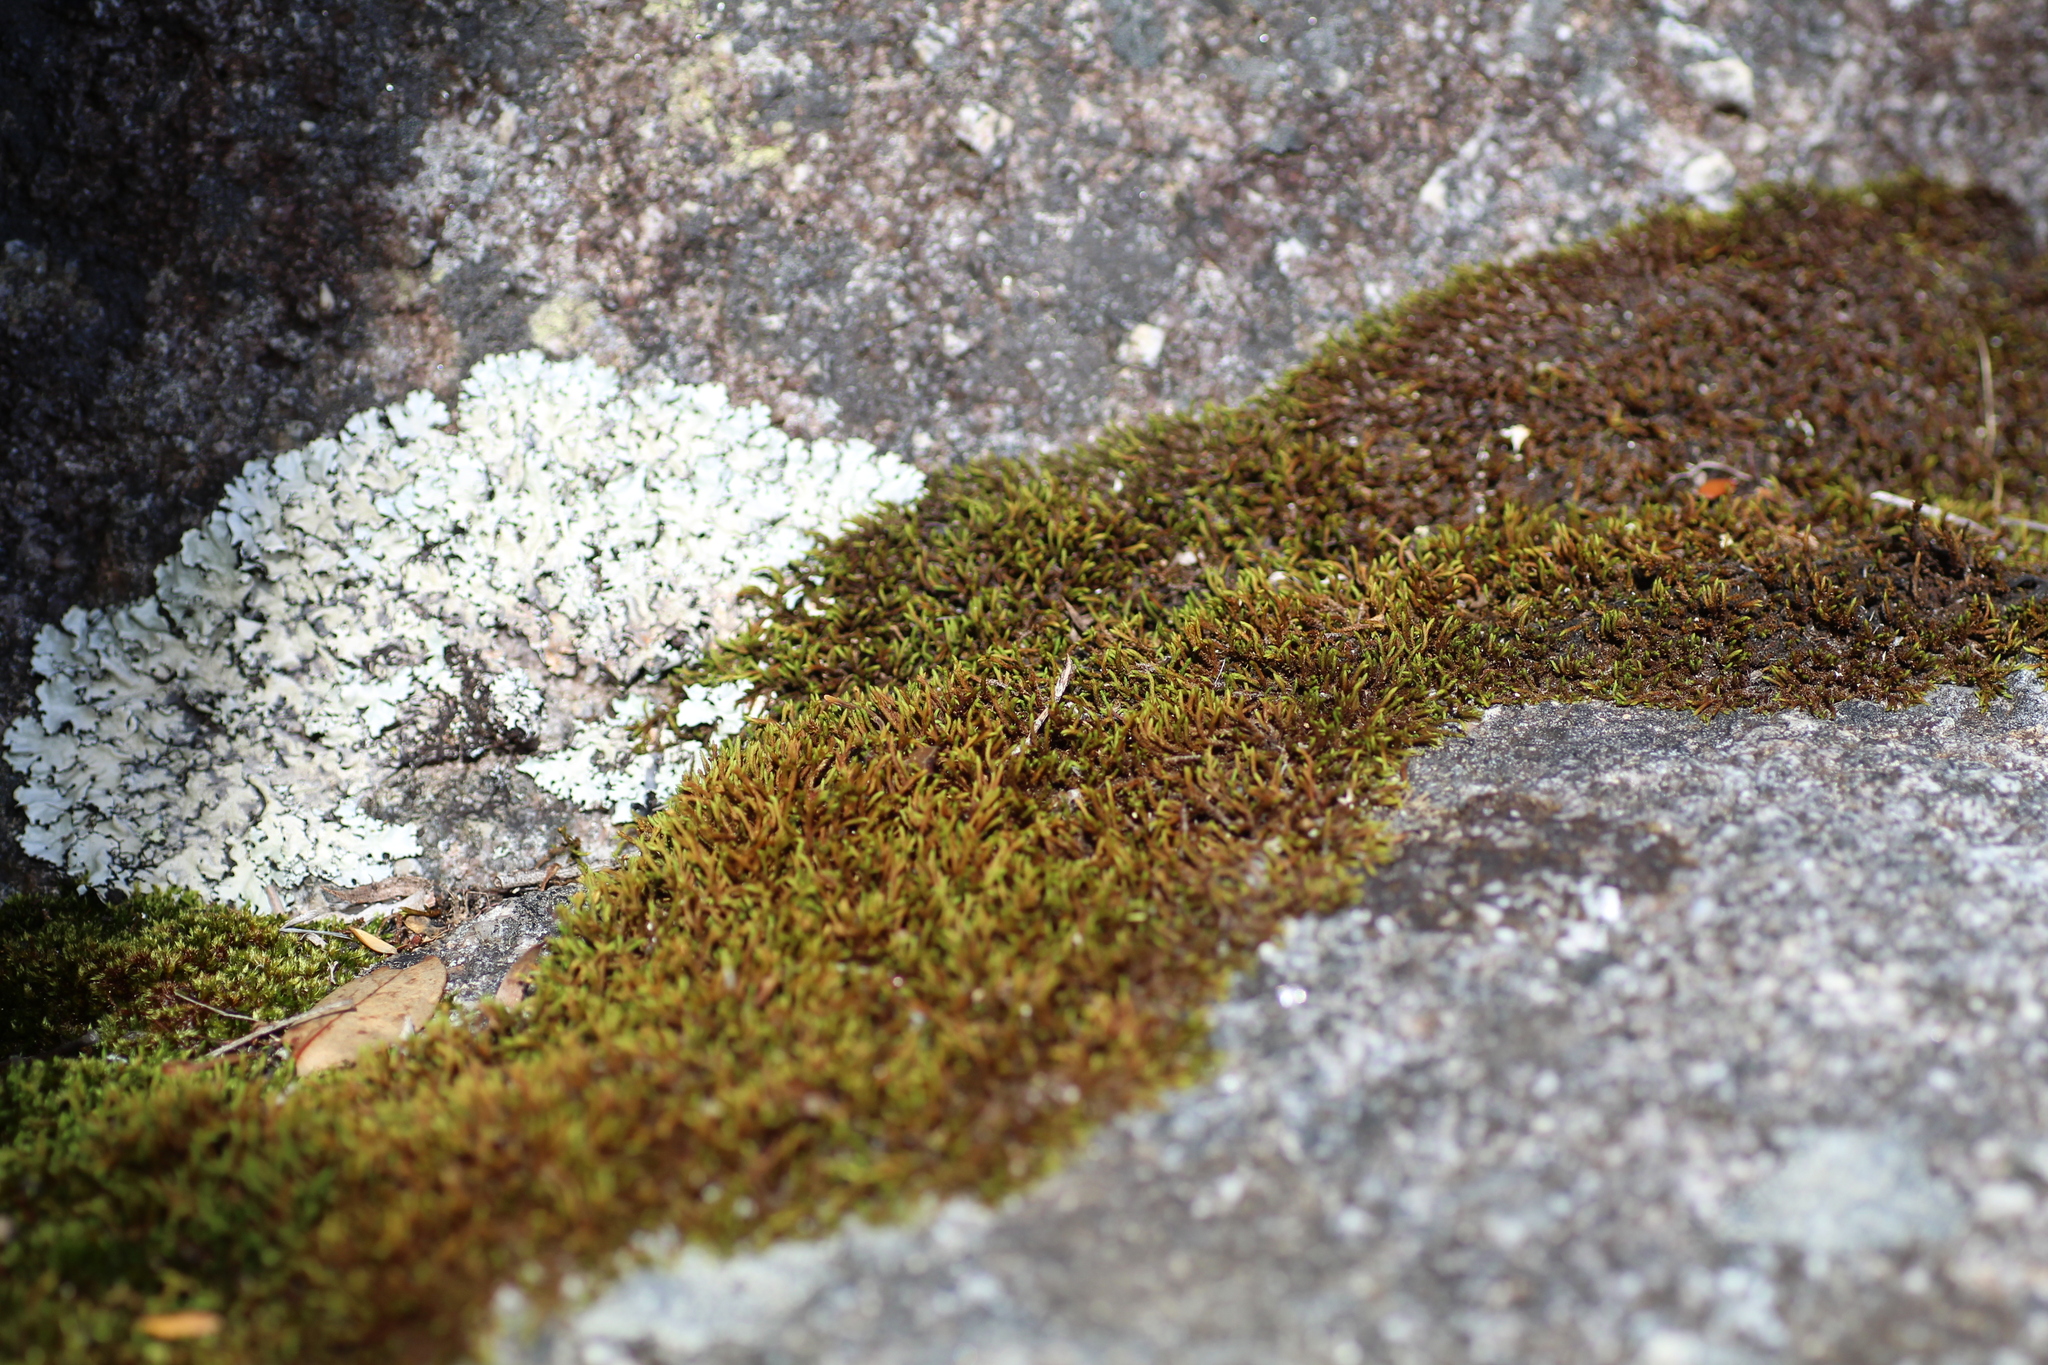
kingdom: Plantae
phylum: Bryophyta
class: Bryopsida
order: Hedwigiales
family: Hedwigiaceae
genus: Hedwigidium
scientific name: Hedwigidium imberbe
